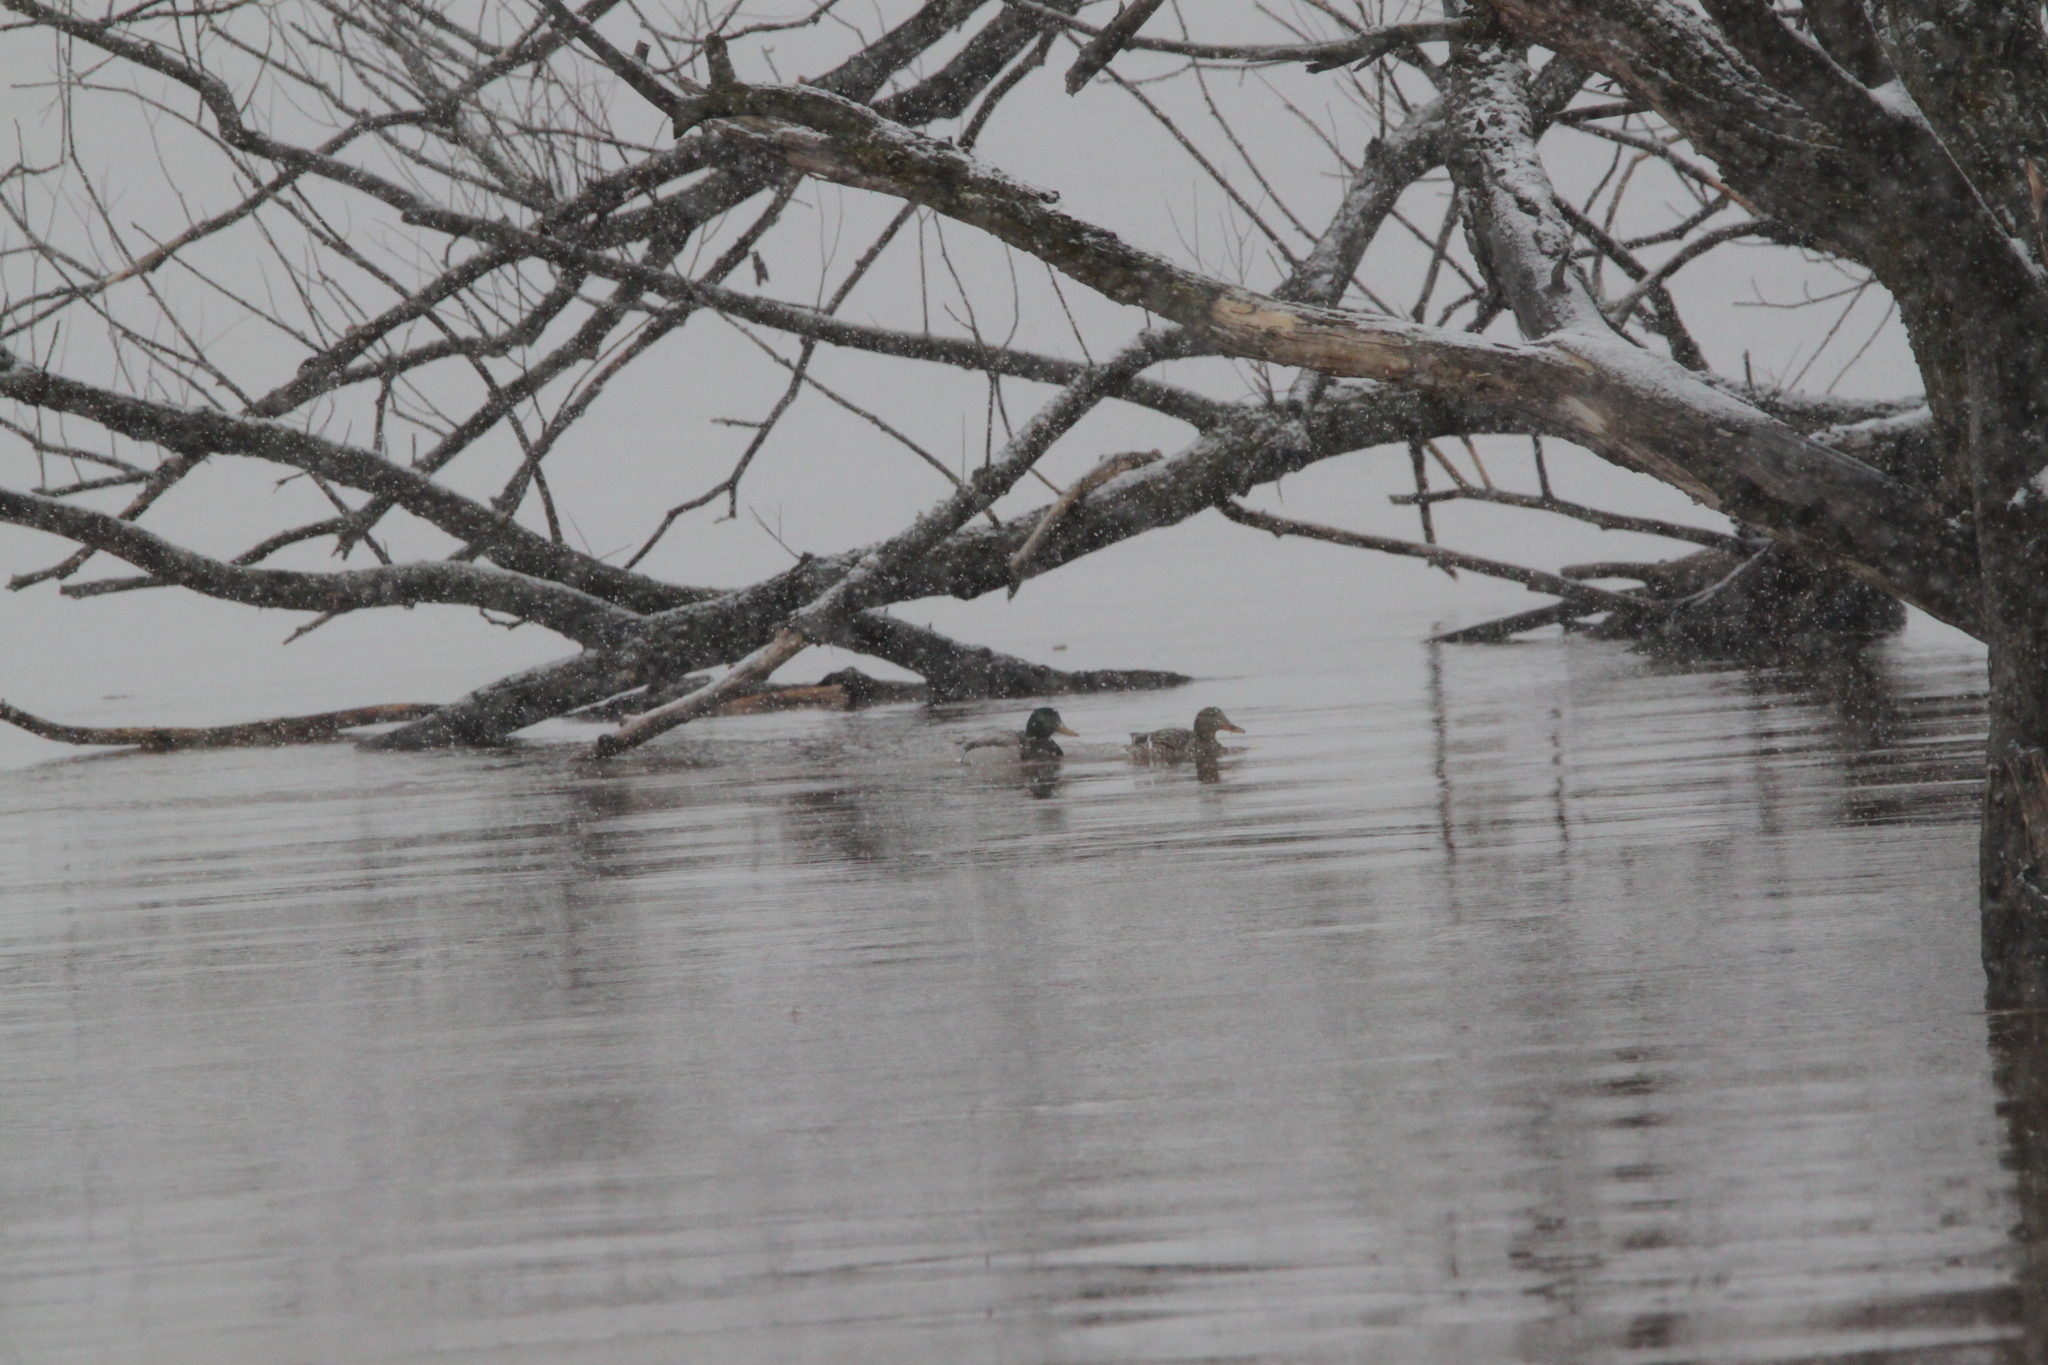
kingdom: Animalia
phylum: Chordata
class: Aves
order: Anseriformes
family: Anatidae
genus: Anas
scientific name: Anas platyrhynchos
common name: Mallard
